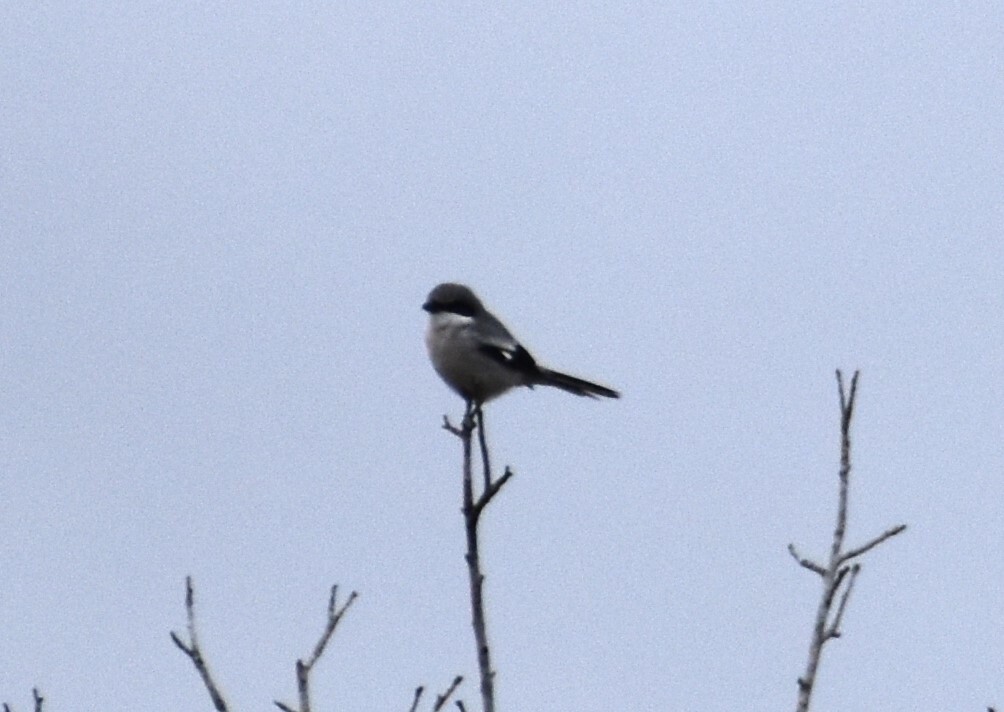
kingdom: Animalia
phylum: Chordata
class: Aves
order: Passeriformes
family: Laniidae
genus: Lanius
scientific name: Lanius ludovicianus
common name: Loggerhead shrike
